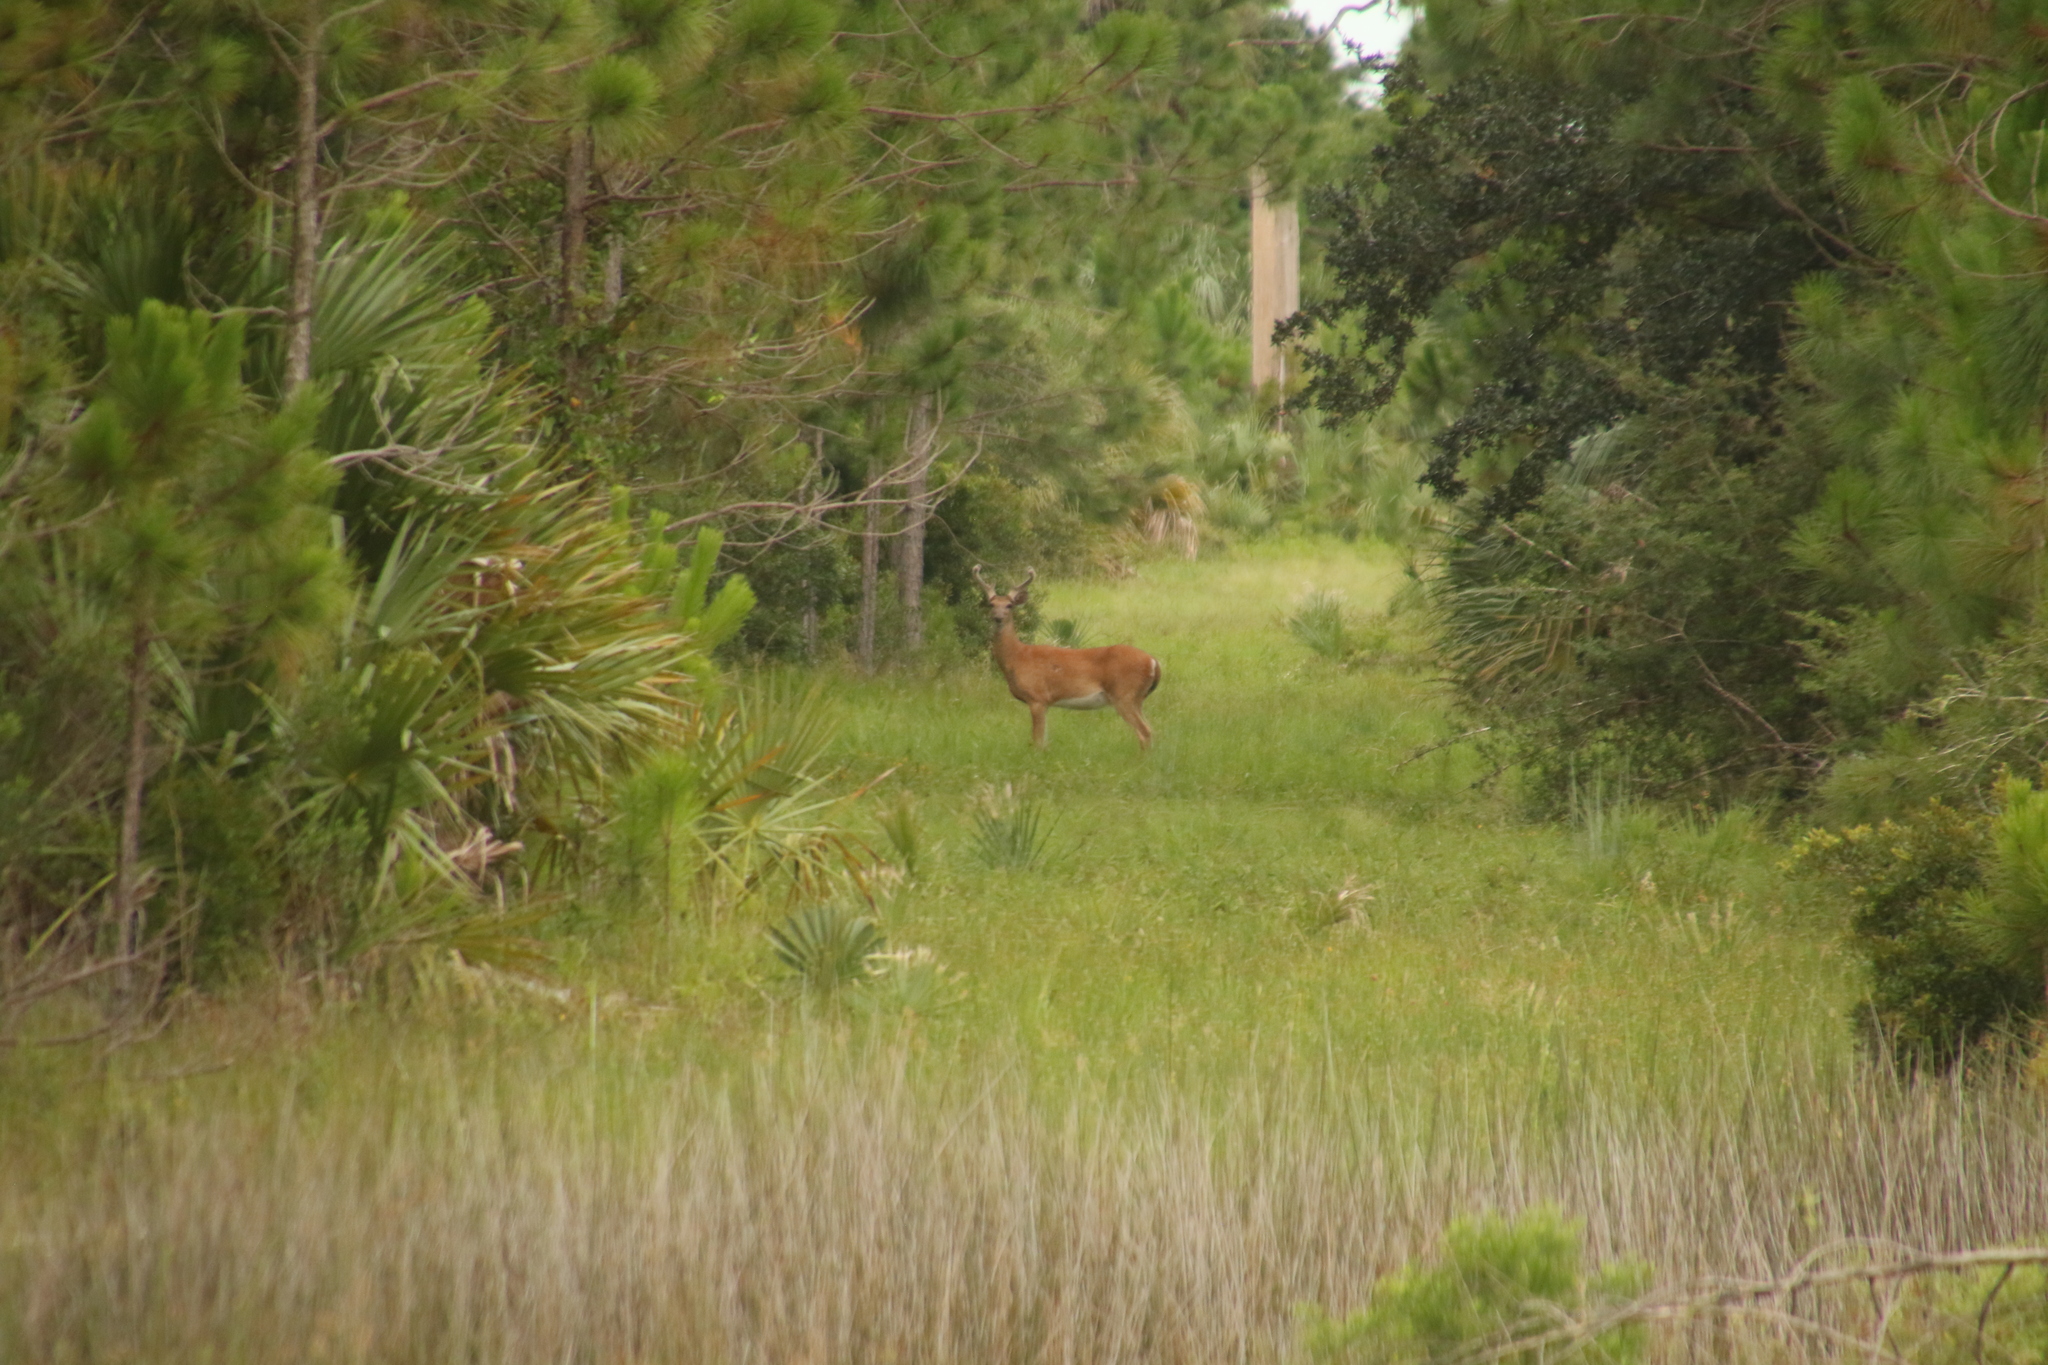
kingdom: Animalia
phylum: Chordata
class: Mammalia
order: Artiodactyla
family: Cervidae
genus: Odocoileus
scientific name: Odocoileus virginianus
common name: White-tailed deer
